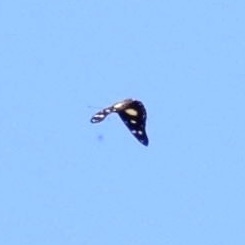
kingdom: Animalia
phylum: Arthropoda
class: Insecta
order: Lepidoptera
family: Nymphalidae
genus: Hypolimnas
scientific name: Hypolimnas dubius
